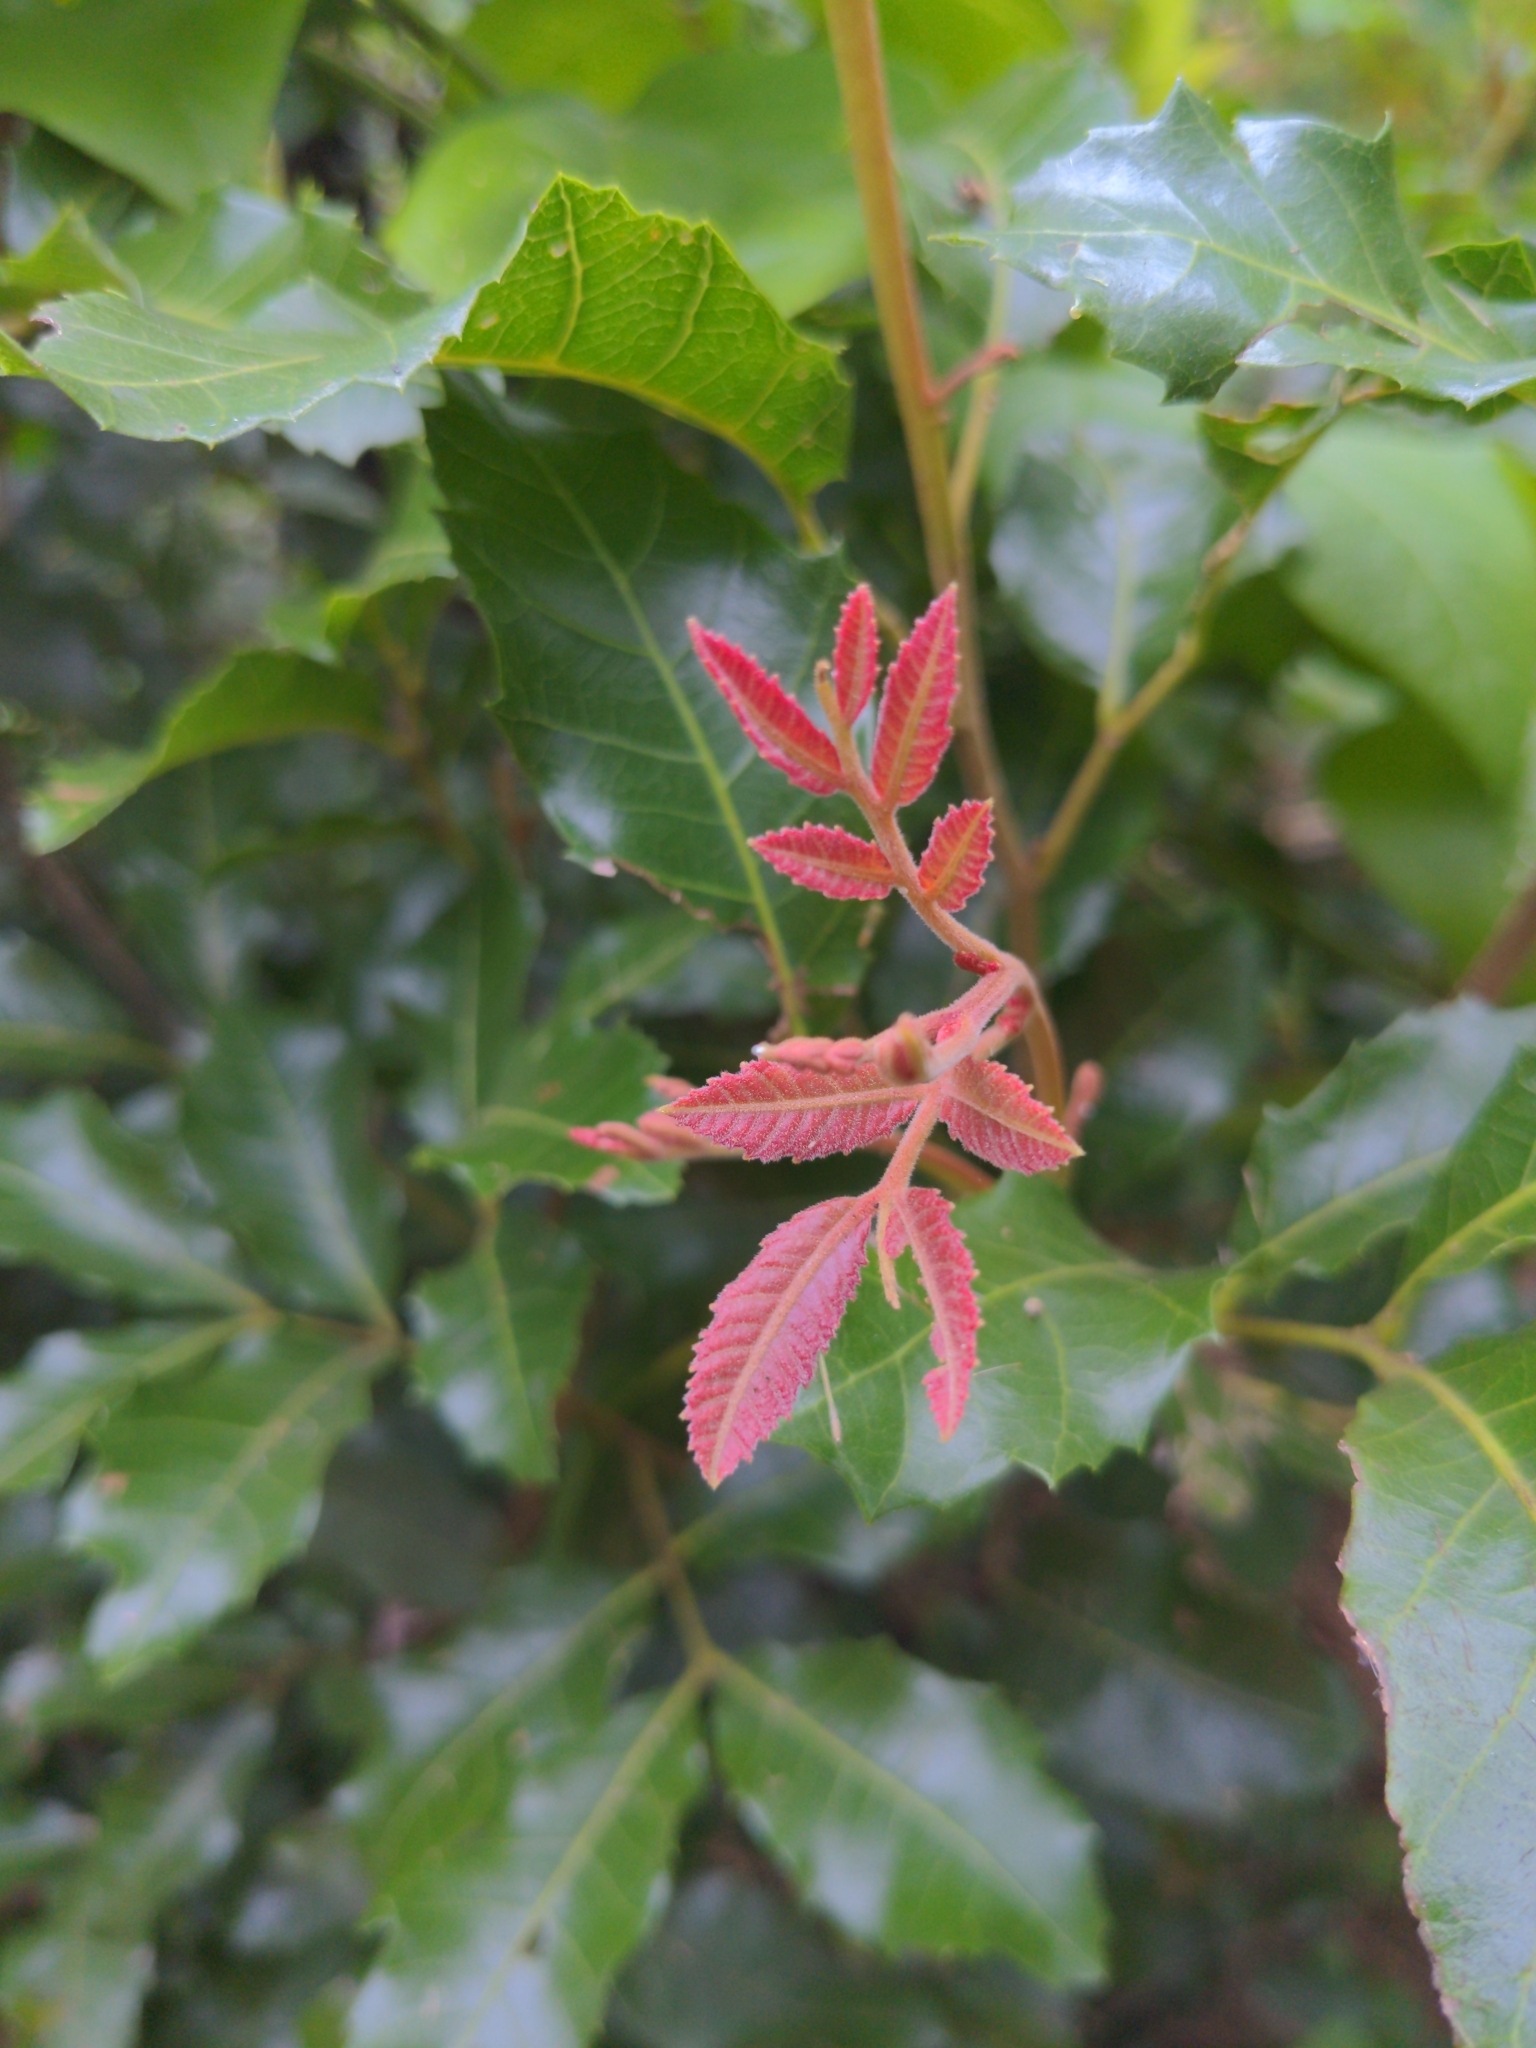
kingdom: Plantae
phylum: Tracheophyta
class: Magnoliopsida
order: Sapindales
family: Sapindaceae
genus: Alectryon
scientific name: Alectryon subdentatus
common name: Hard alectryon
